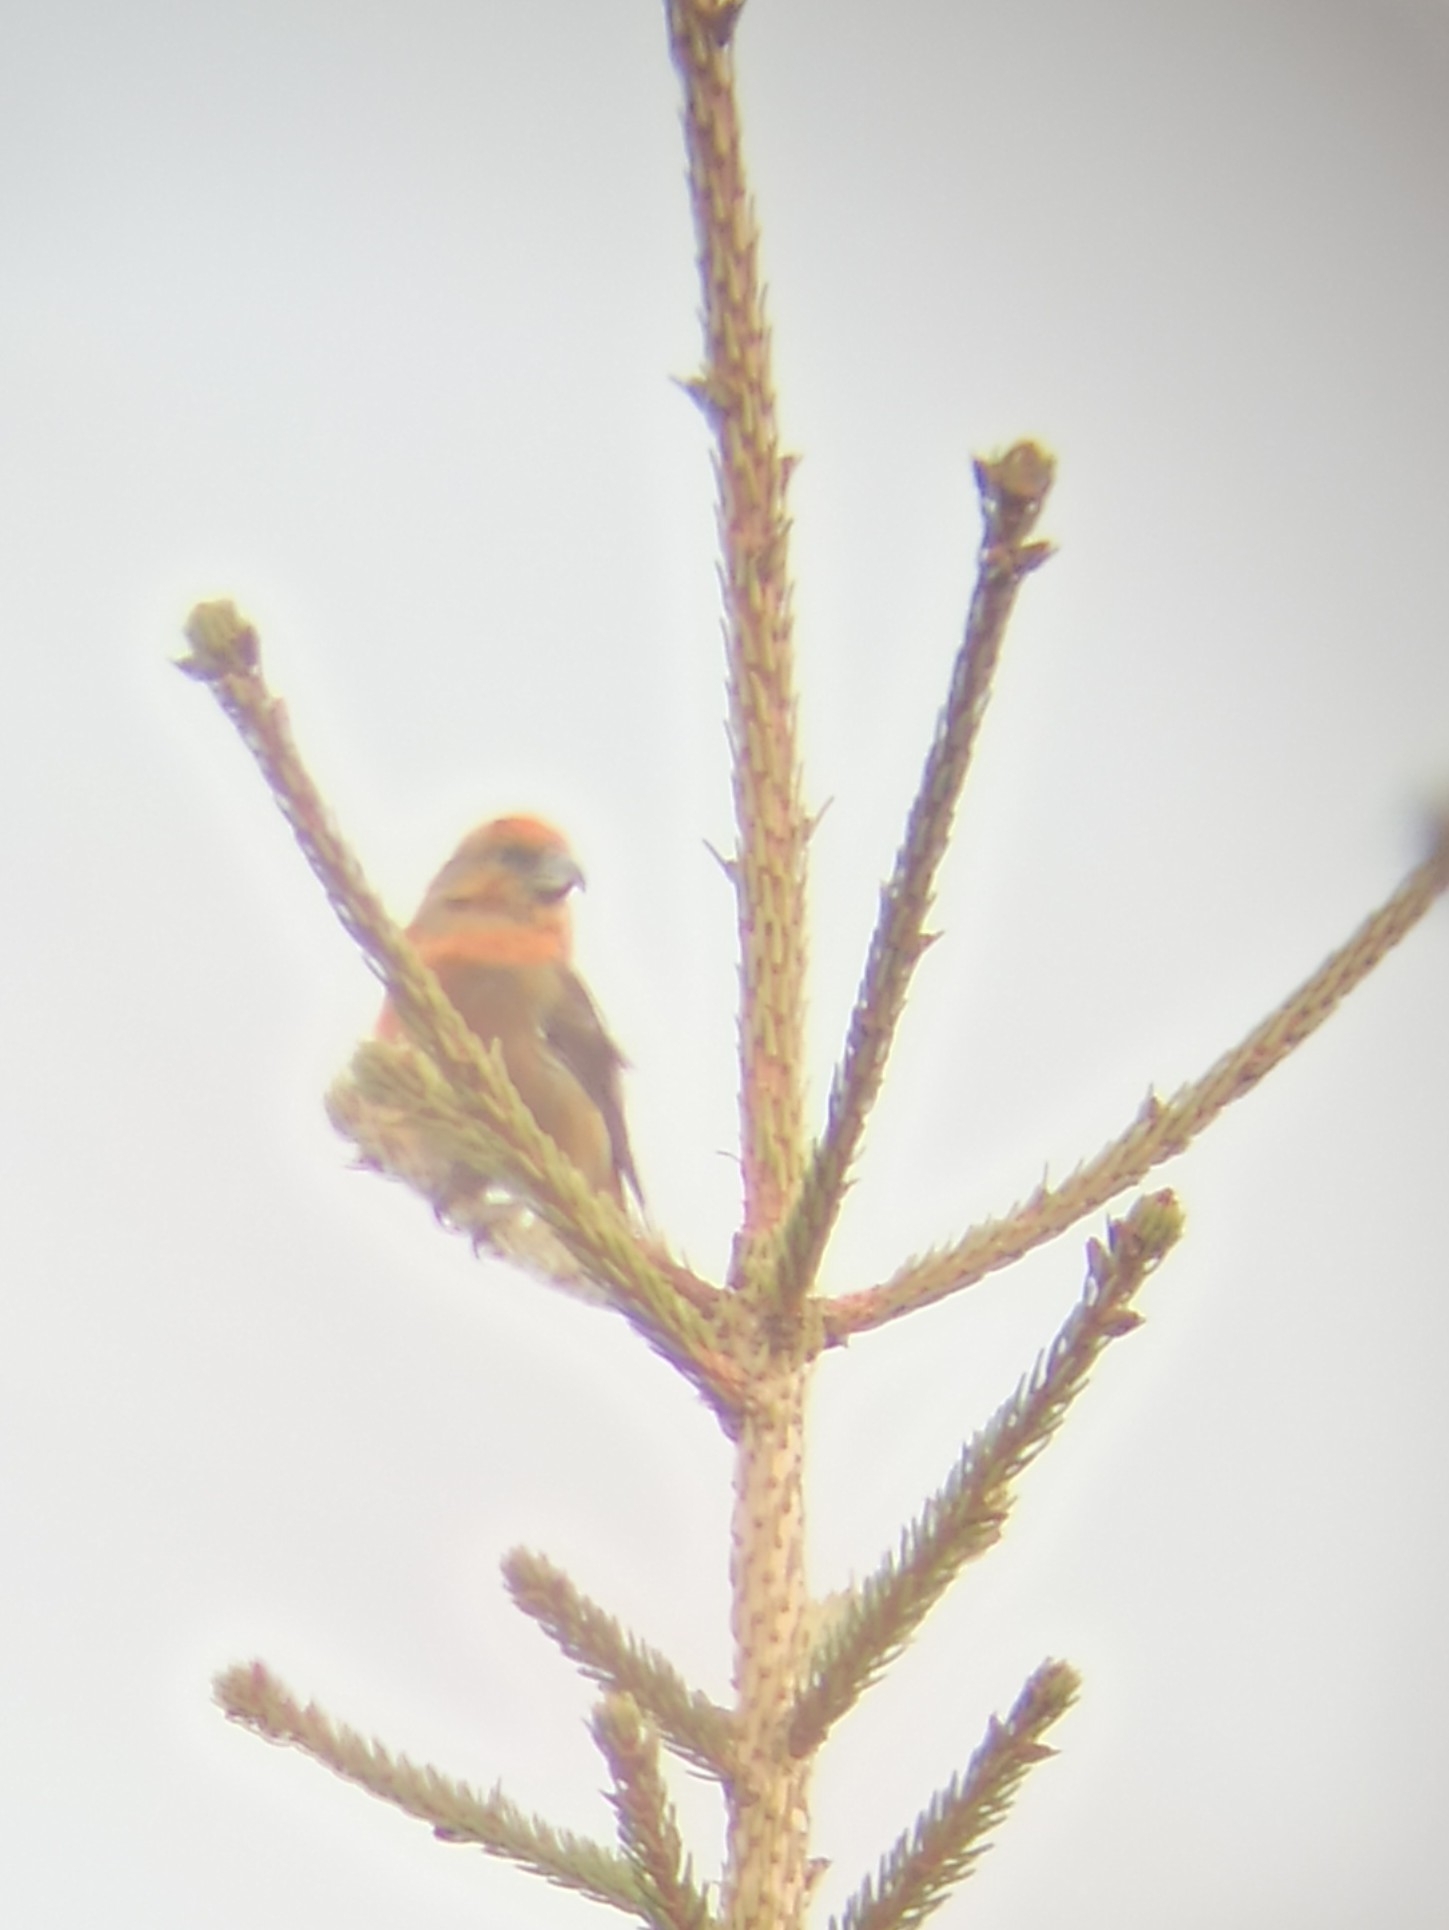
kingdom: Animalia
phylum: Chordata
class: Aves
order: Passeriformes
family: Fringillidae
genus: Loxia
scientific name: Loxia curvirostra
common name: Red crossbill
